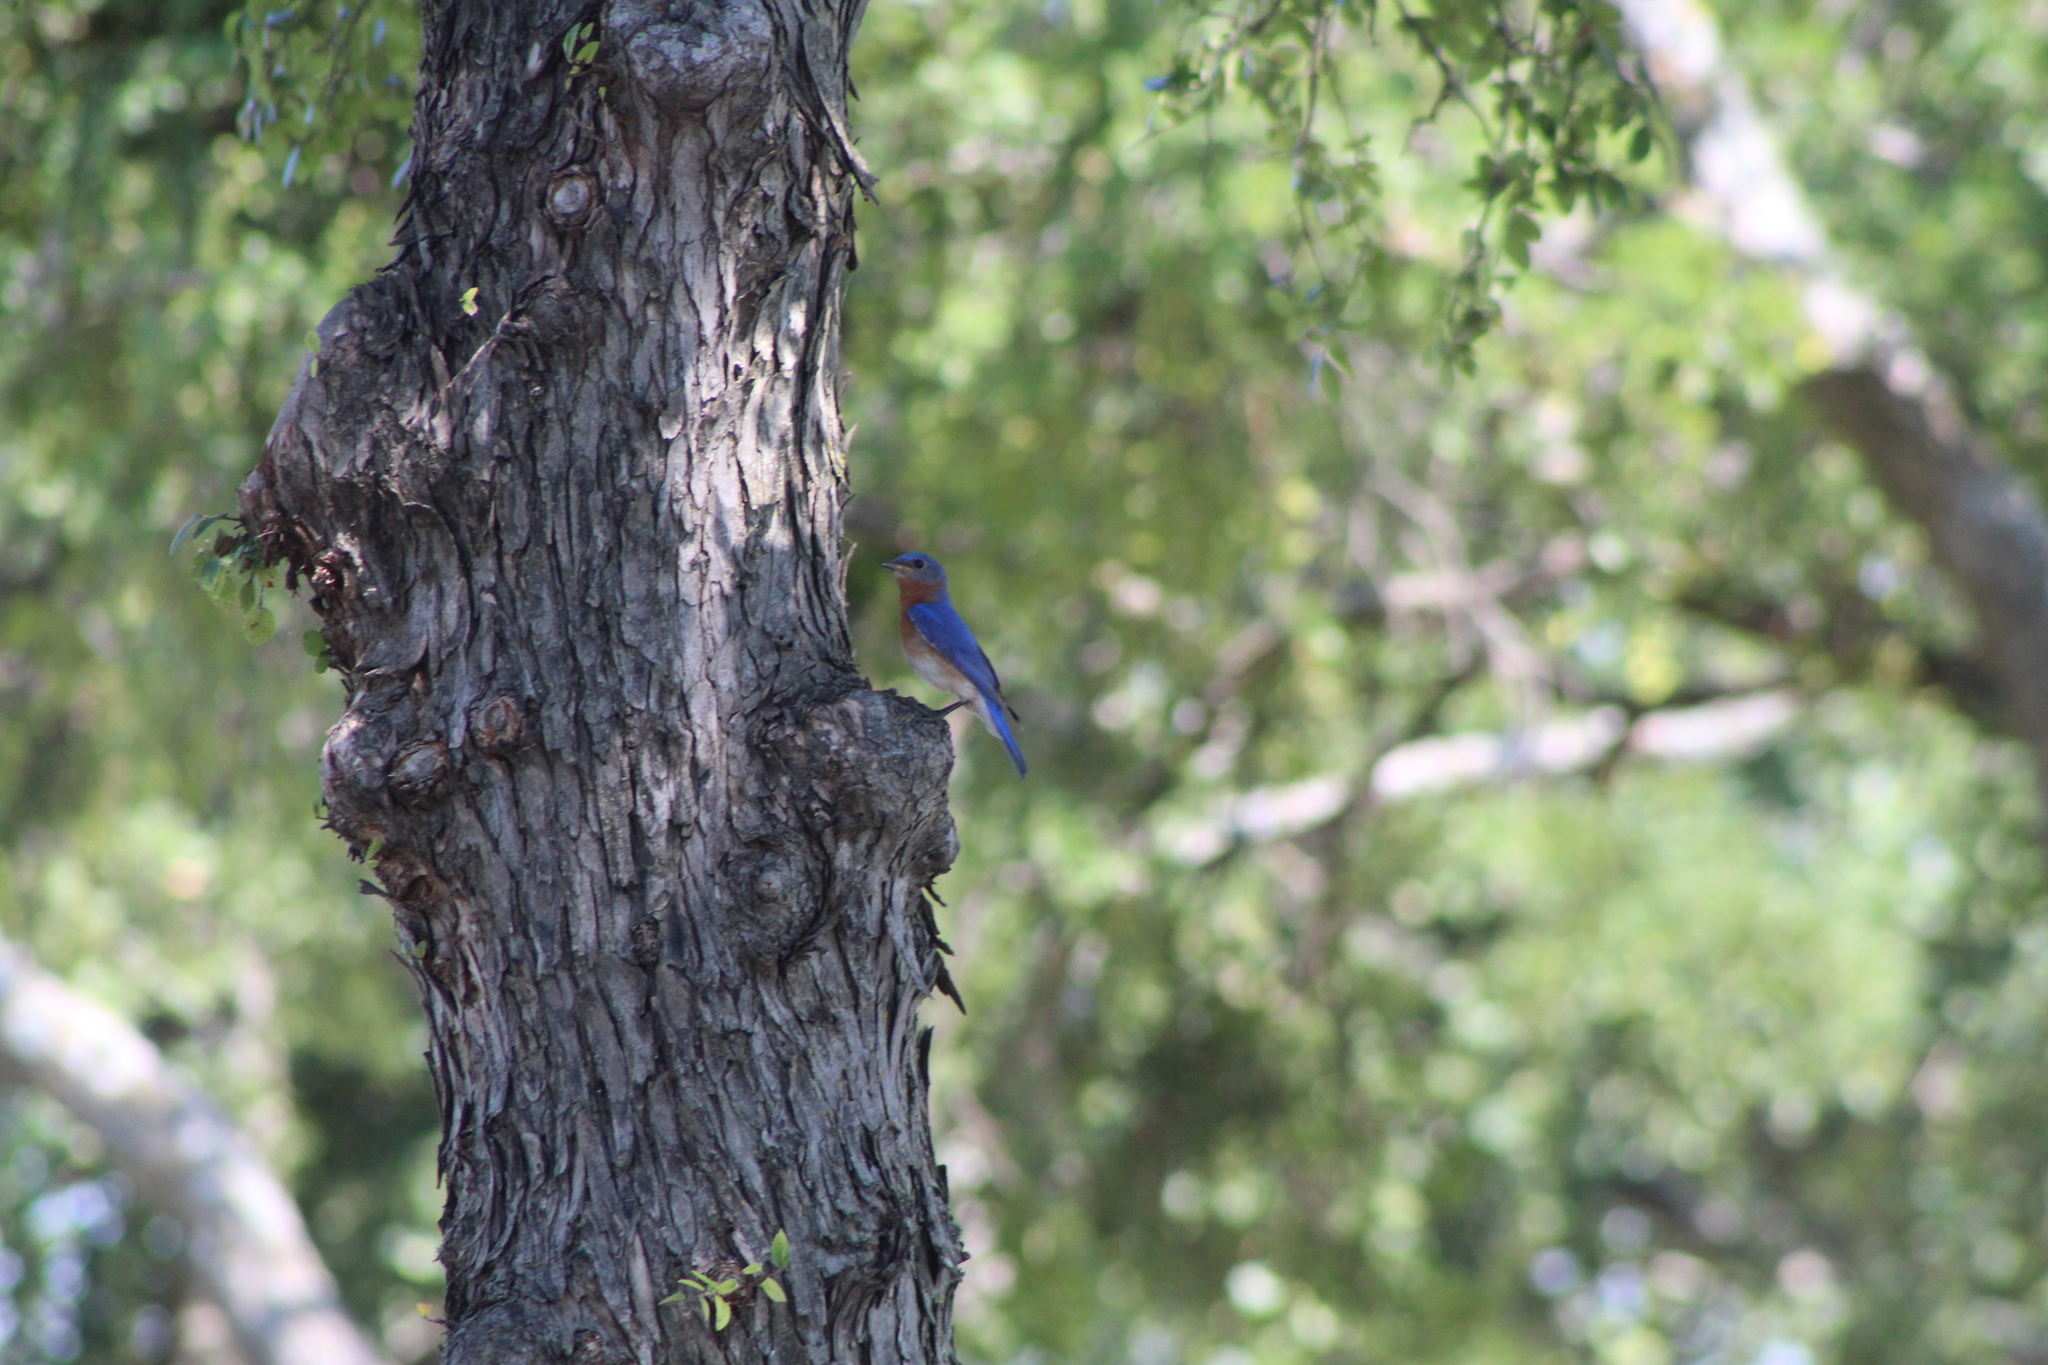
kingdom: Animalia
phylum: Chordata
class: Aves
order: Passeriformes
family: Turdidae
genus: Sialia
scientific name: Sialia sialis
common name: Eastern bluebird
